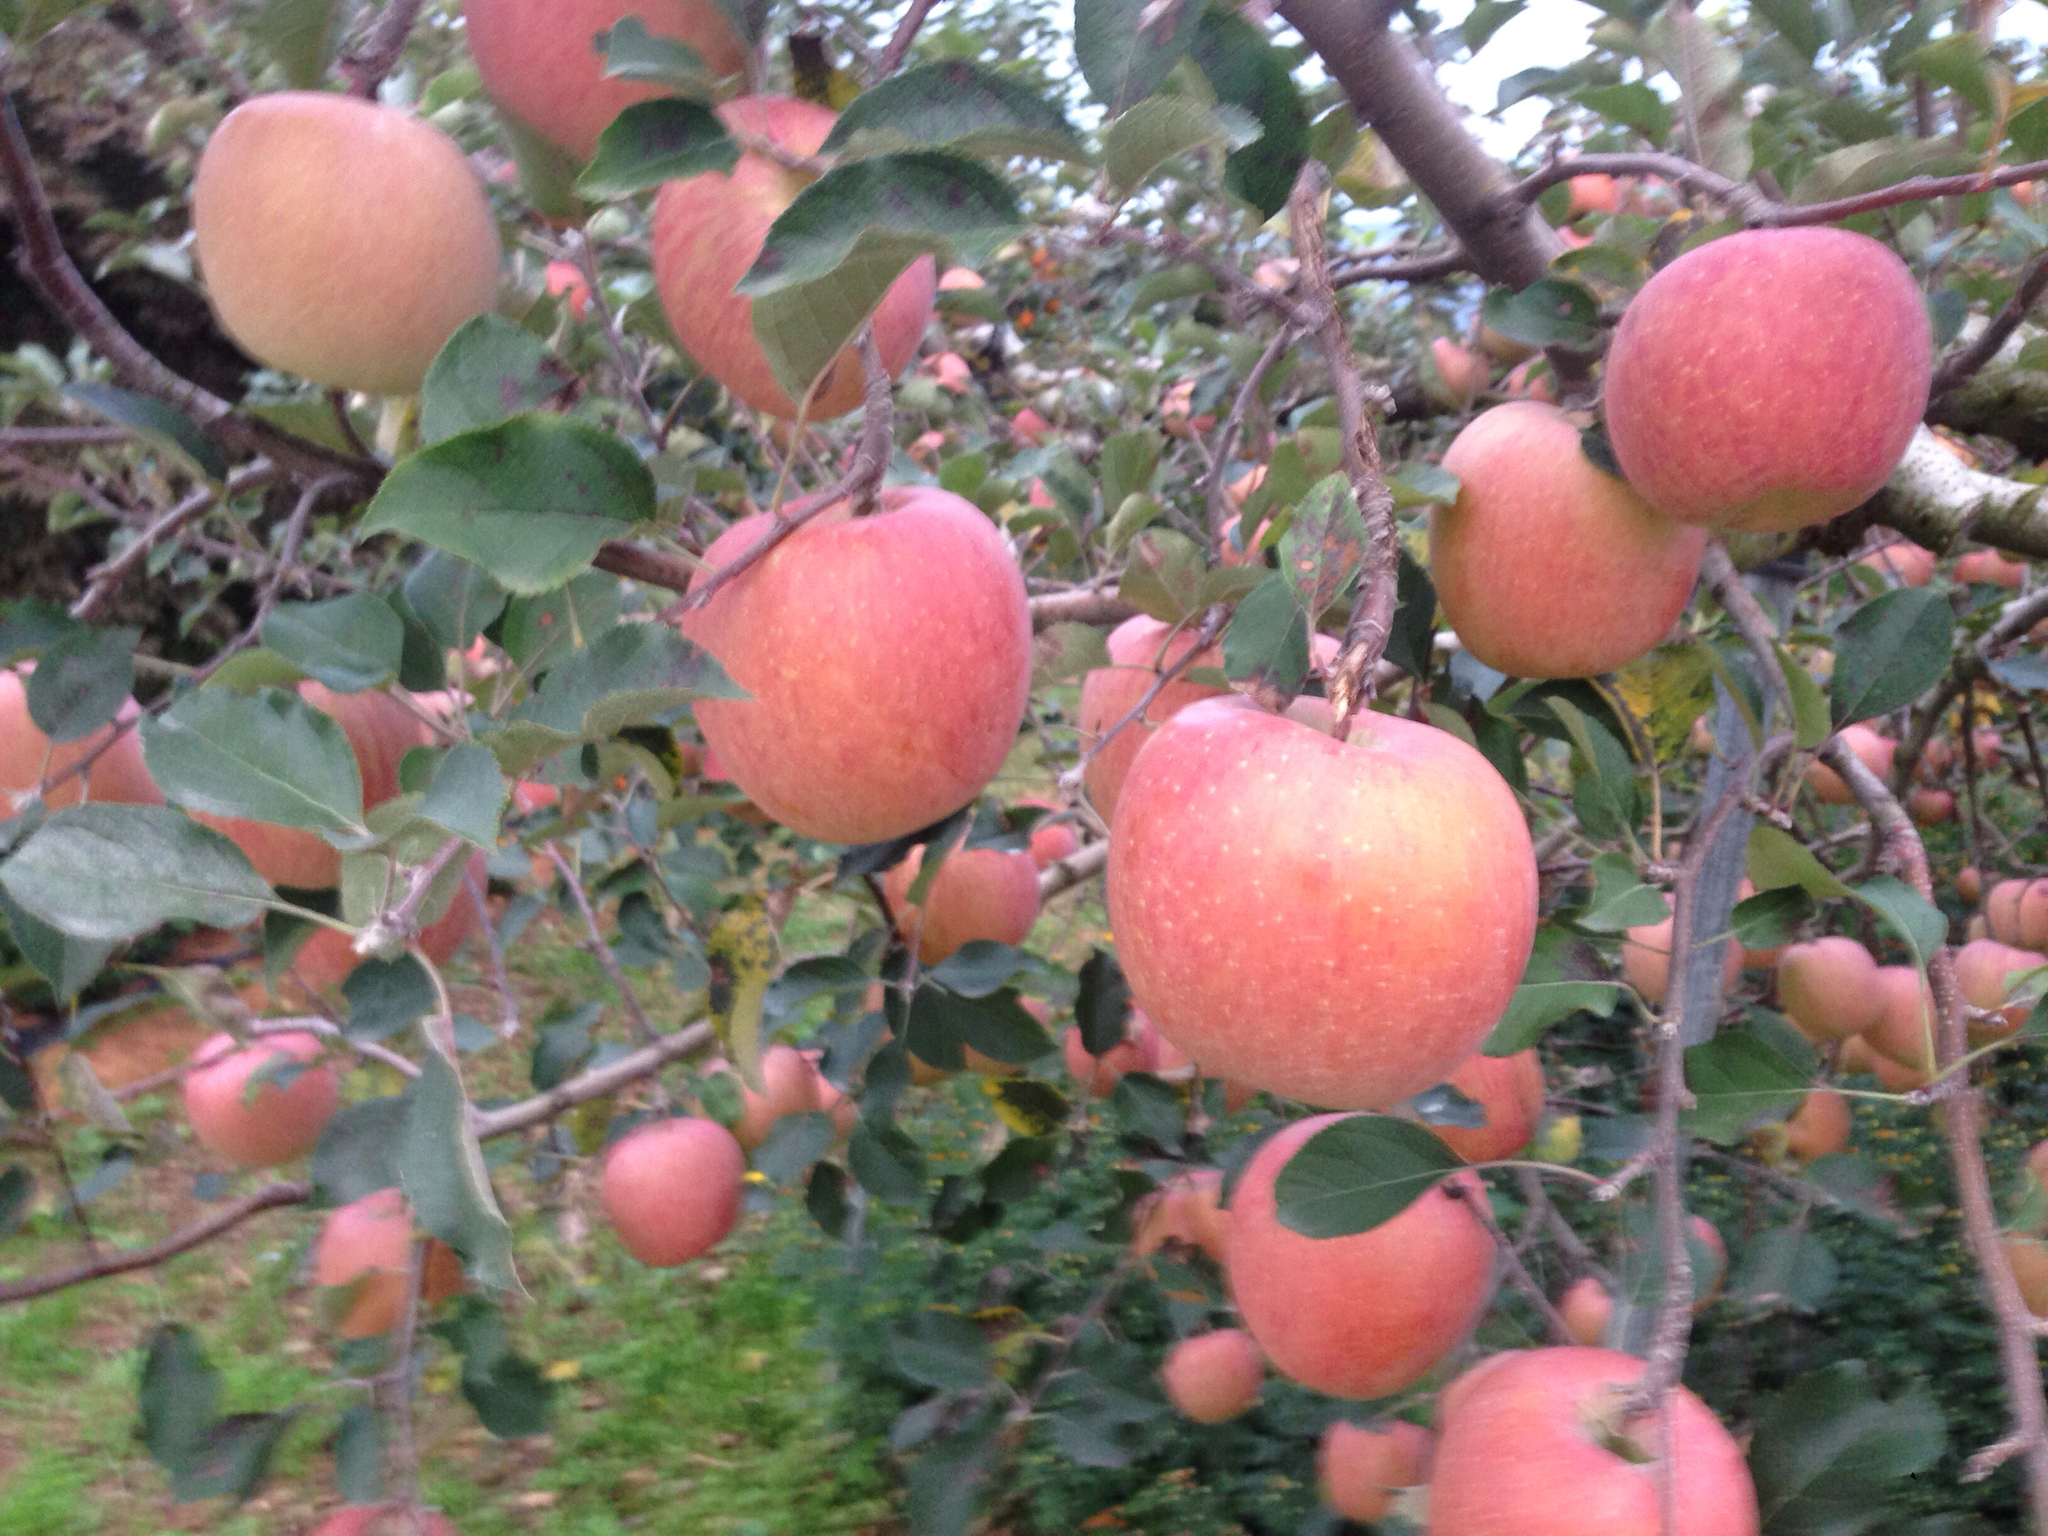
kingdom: Plantae
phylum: Tracheophyta
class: Magnoliopsida
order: Rosales
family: Rosaceae
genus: Malus
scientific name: Malus domestica
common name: Apple
